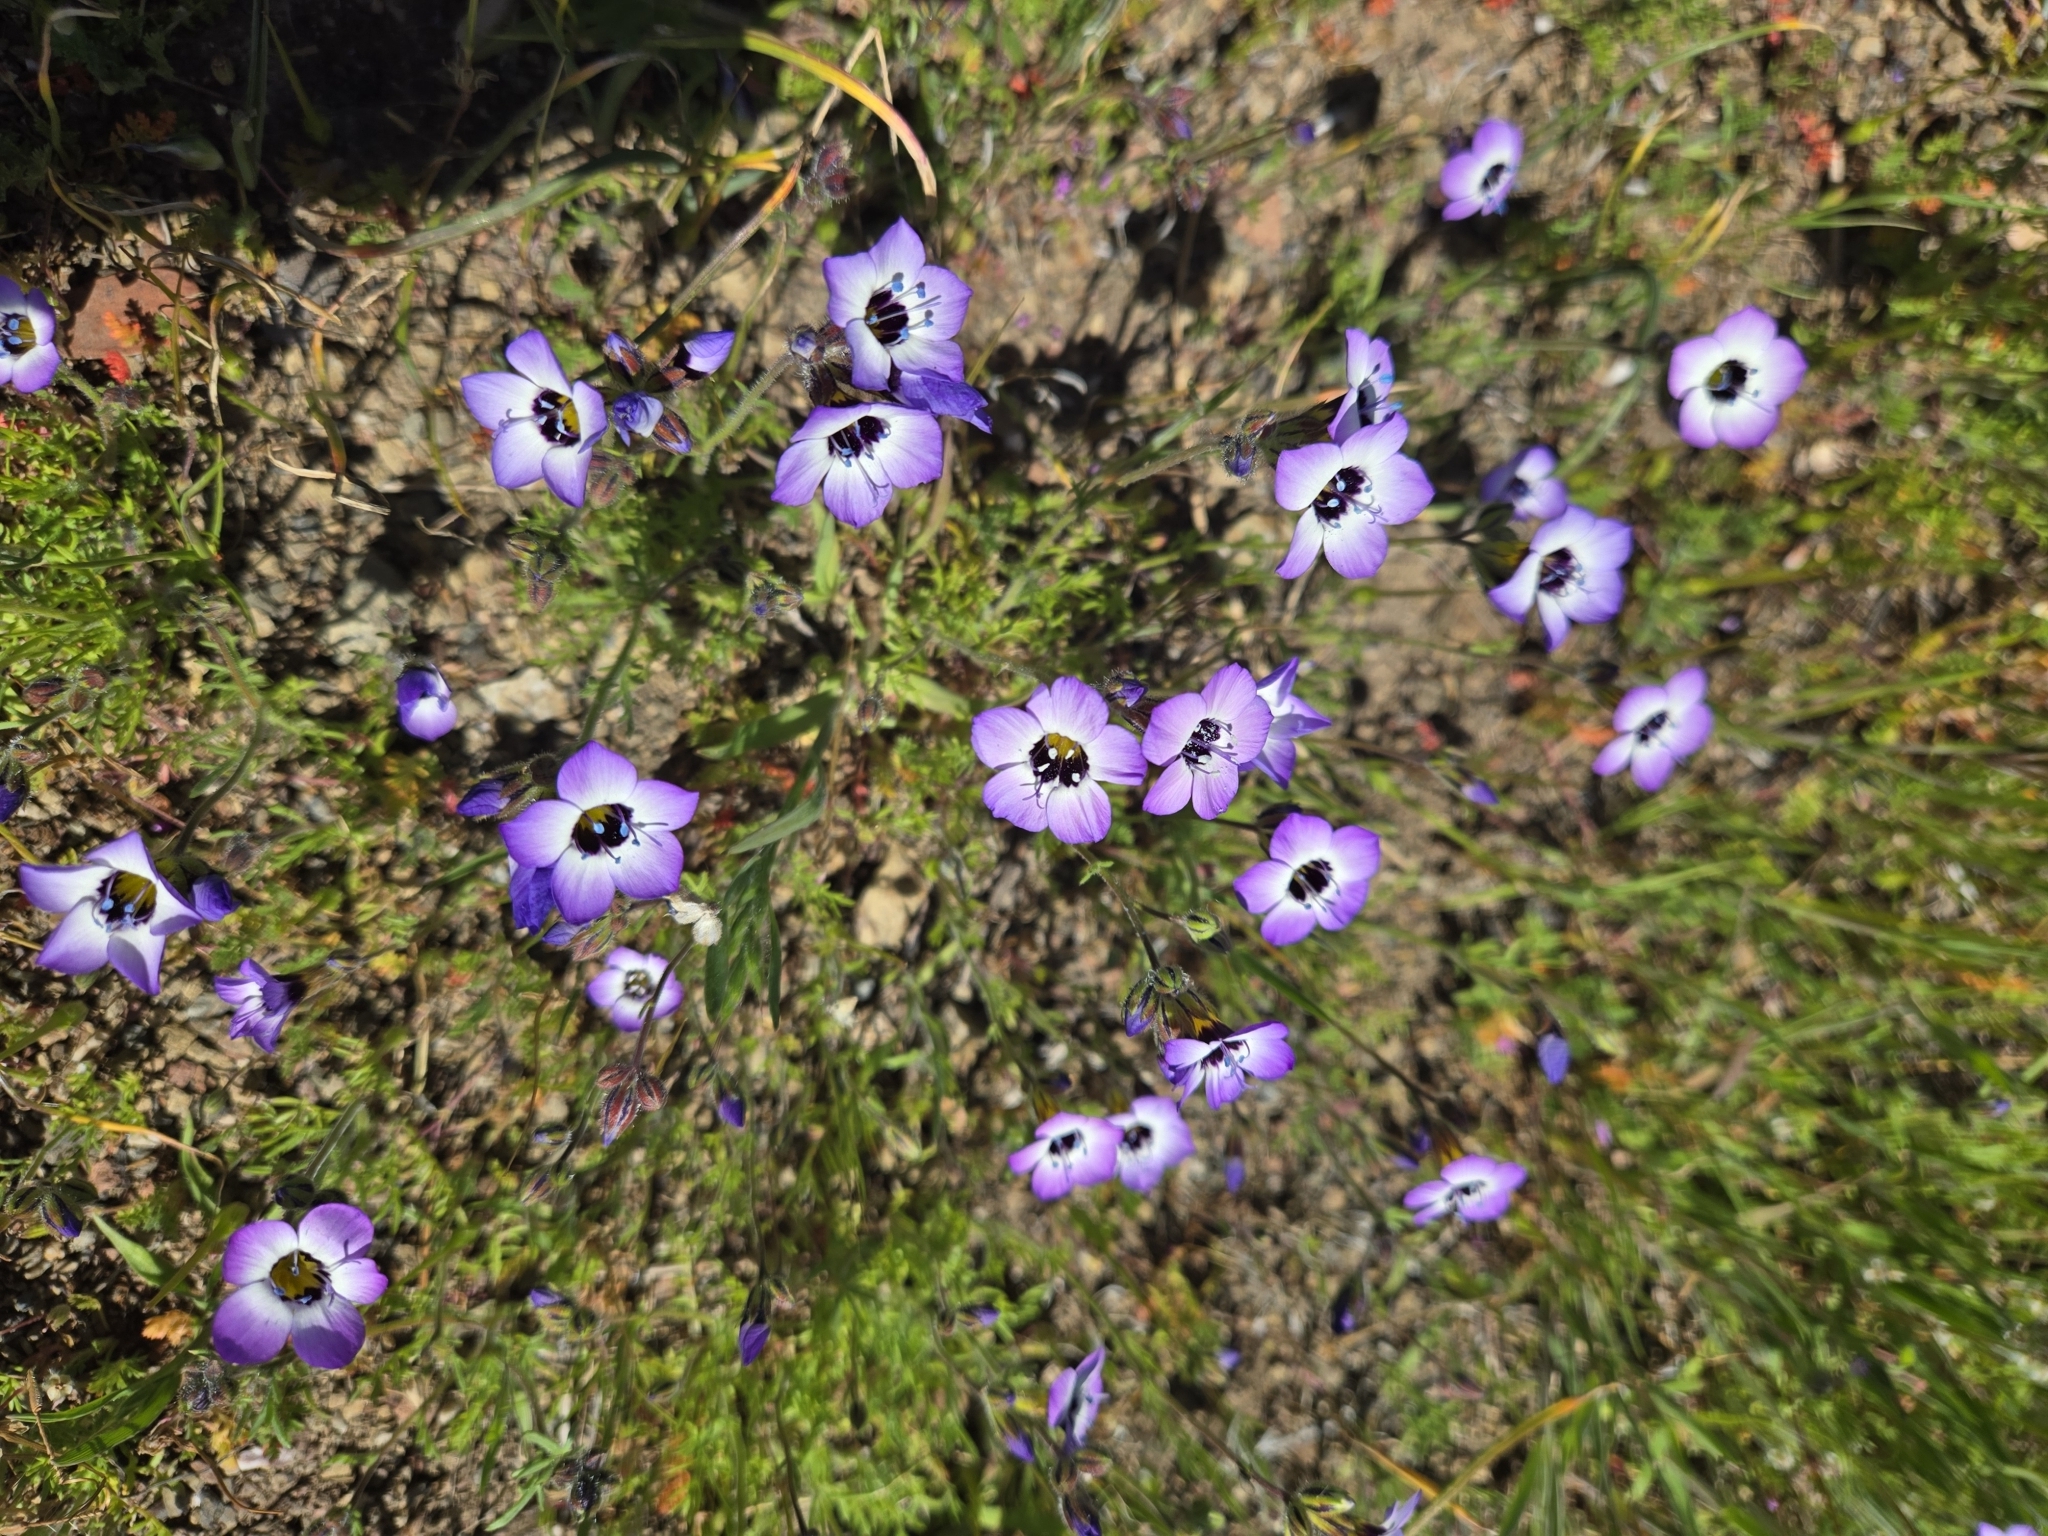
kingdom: Plantae
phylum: Tracheophyta
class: Magnoliopsida
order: Ericales
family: Polemoniaceae
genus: Gilia
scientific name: Gilia tricolor
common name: Bird's-eyes
